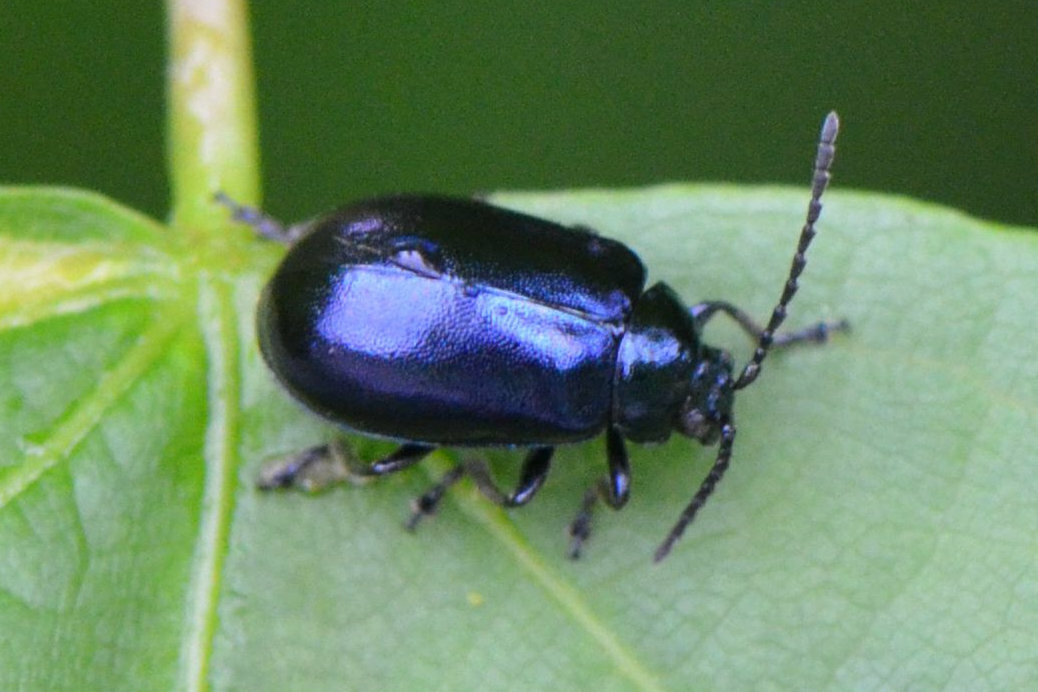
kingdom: Animalia
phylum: Arthropoda
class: Insecta
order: Coleoptera
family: Chrysomelidae
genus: Agelastica
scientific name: Agelastica alni
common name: Alder leaf beetle
